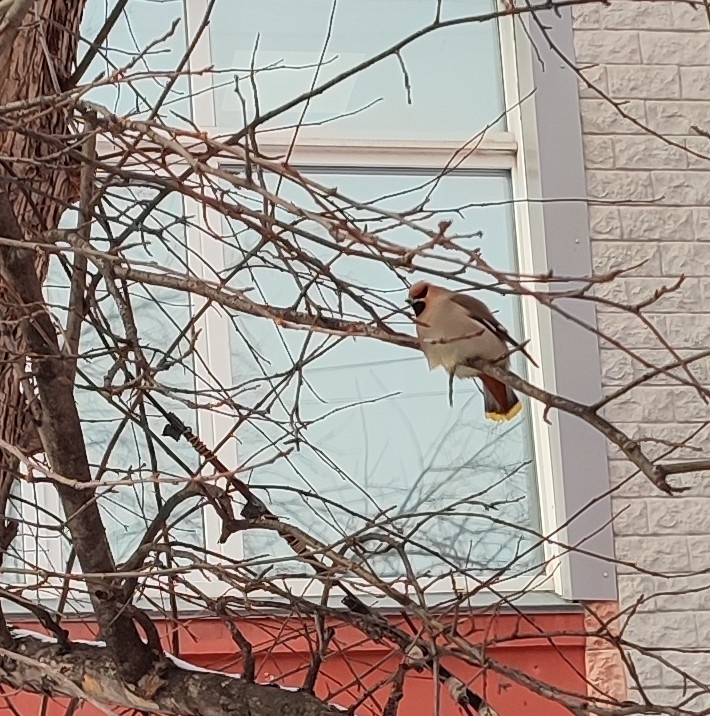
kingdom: Animalia
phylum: Chordata
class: Aves
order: Passeriformes
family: Bombycillidae
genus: Bombycilla
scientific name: Bombycilla garrulus
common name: Bohemian waxwing
